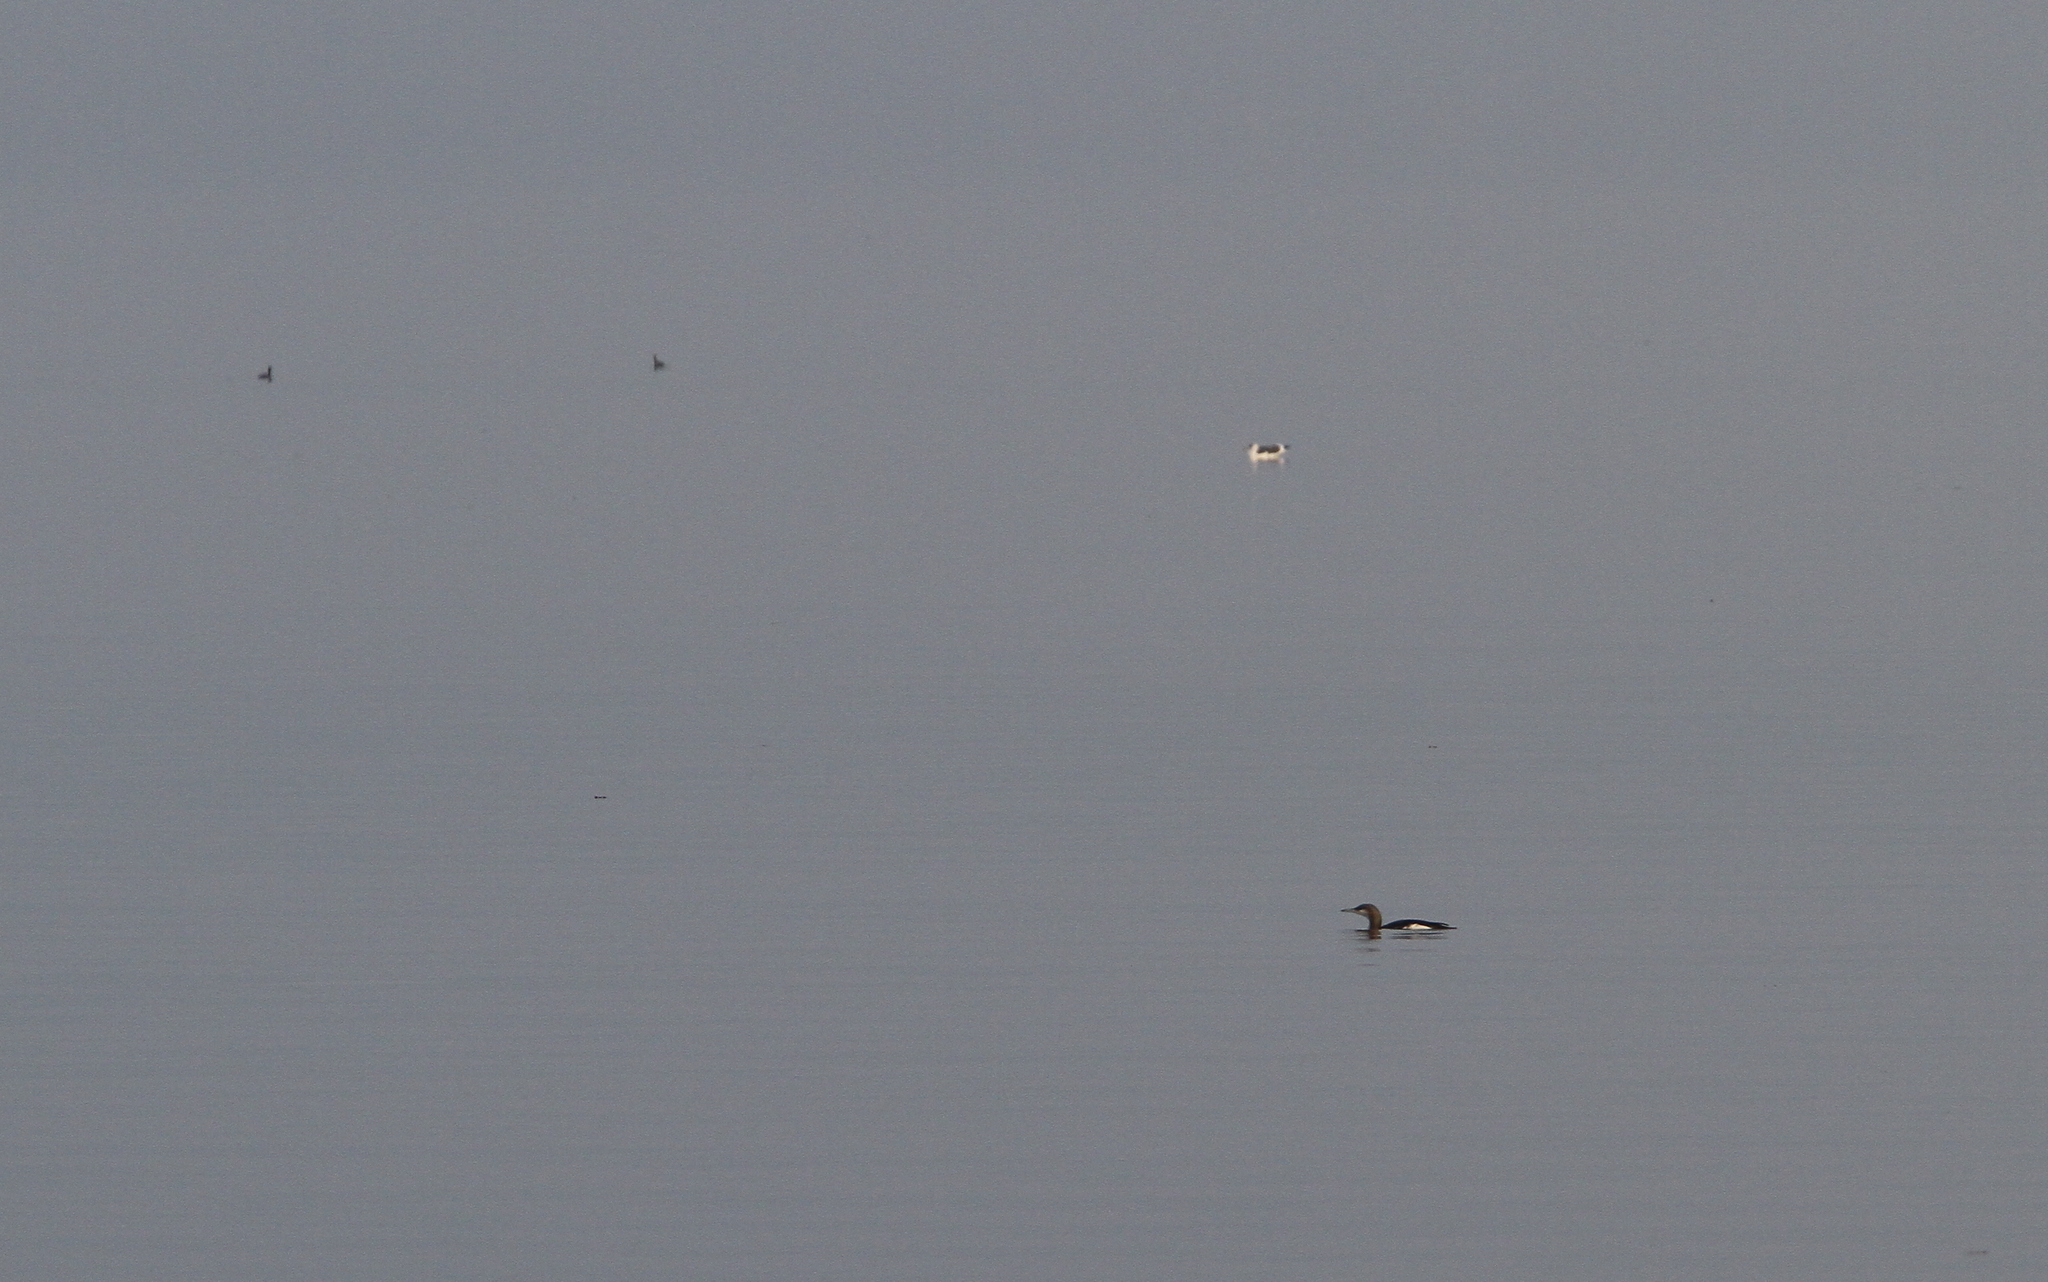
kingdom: Animalia
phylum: Chordata
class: Aves
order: Gaviiformes
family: Gaviidae
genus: Gavia
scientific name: Gavia arctica
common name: Black-throated loon
